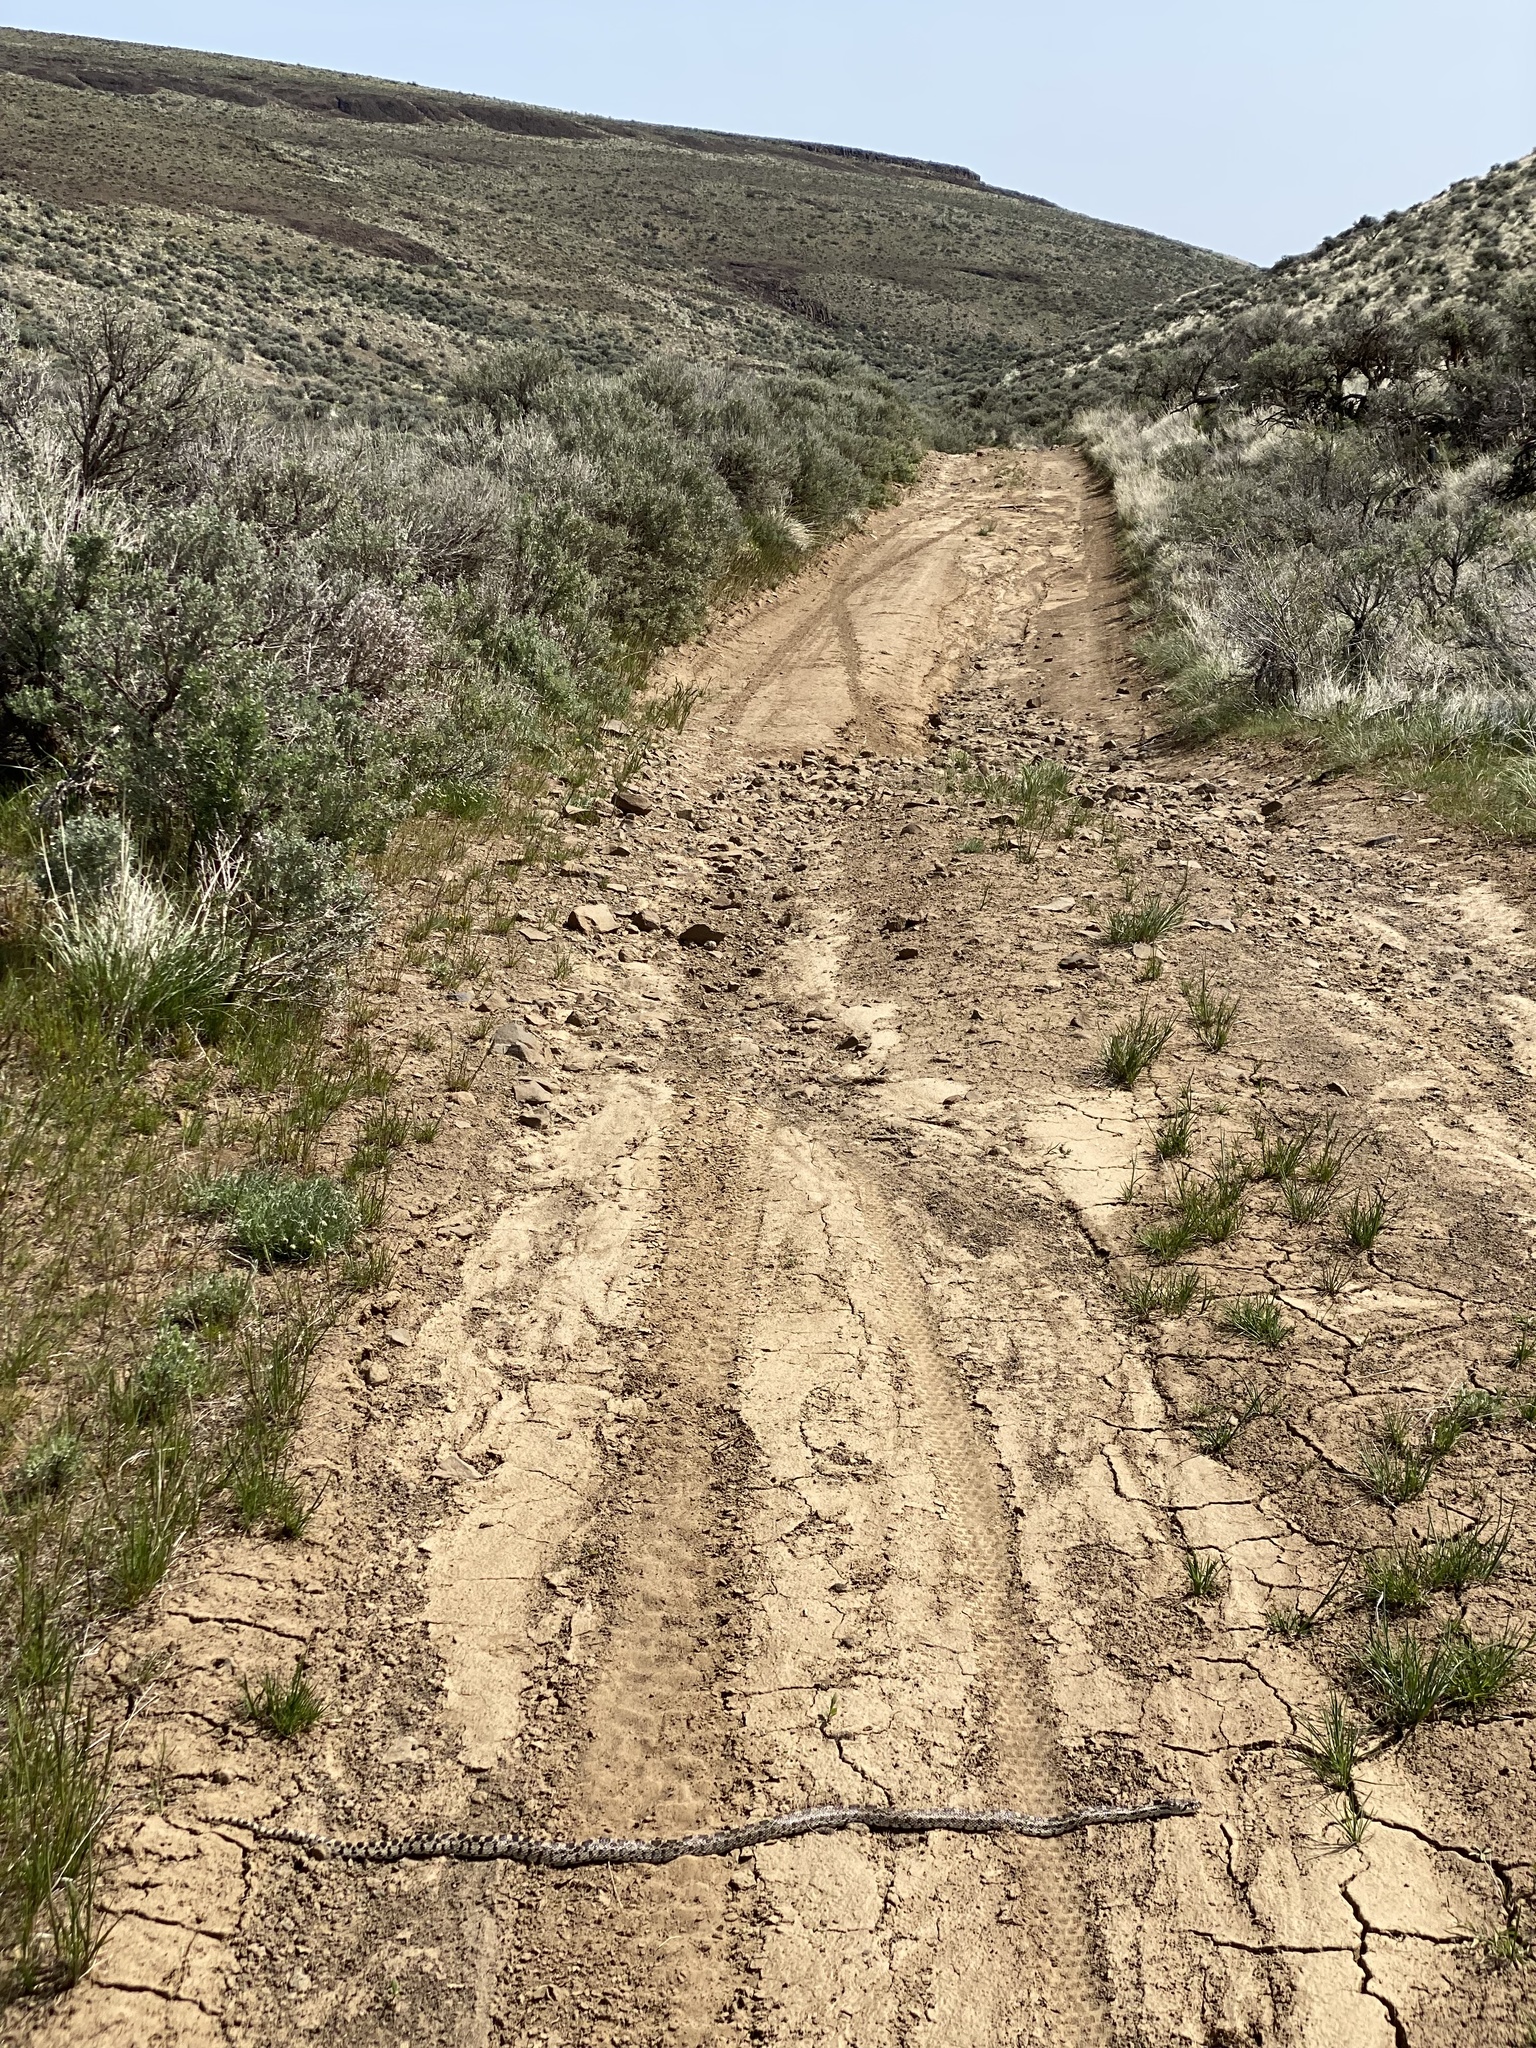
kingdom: Animalia
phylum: Chordata
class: Squamata
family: Colubridae
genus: Pituophis
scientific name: Pituophis catenifer
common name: Gopher snake
